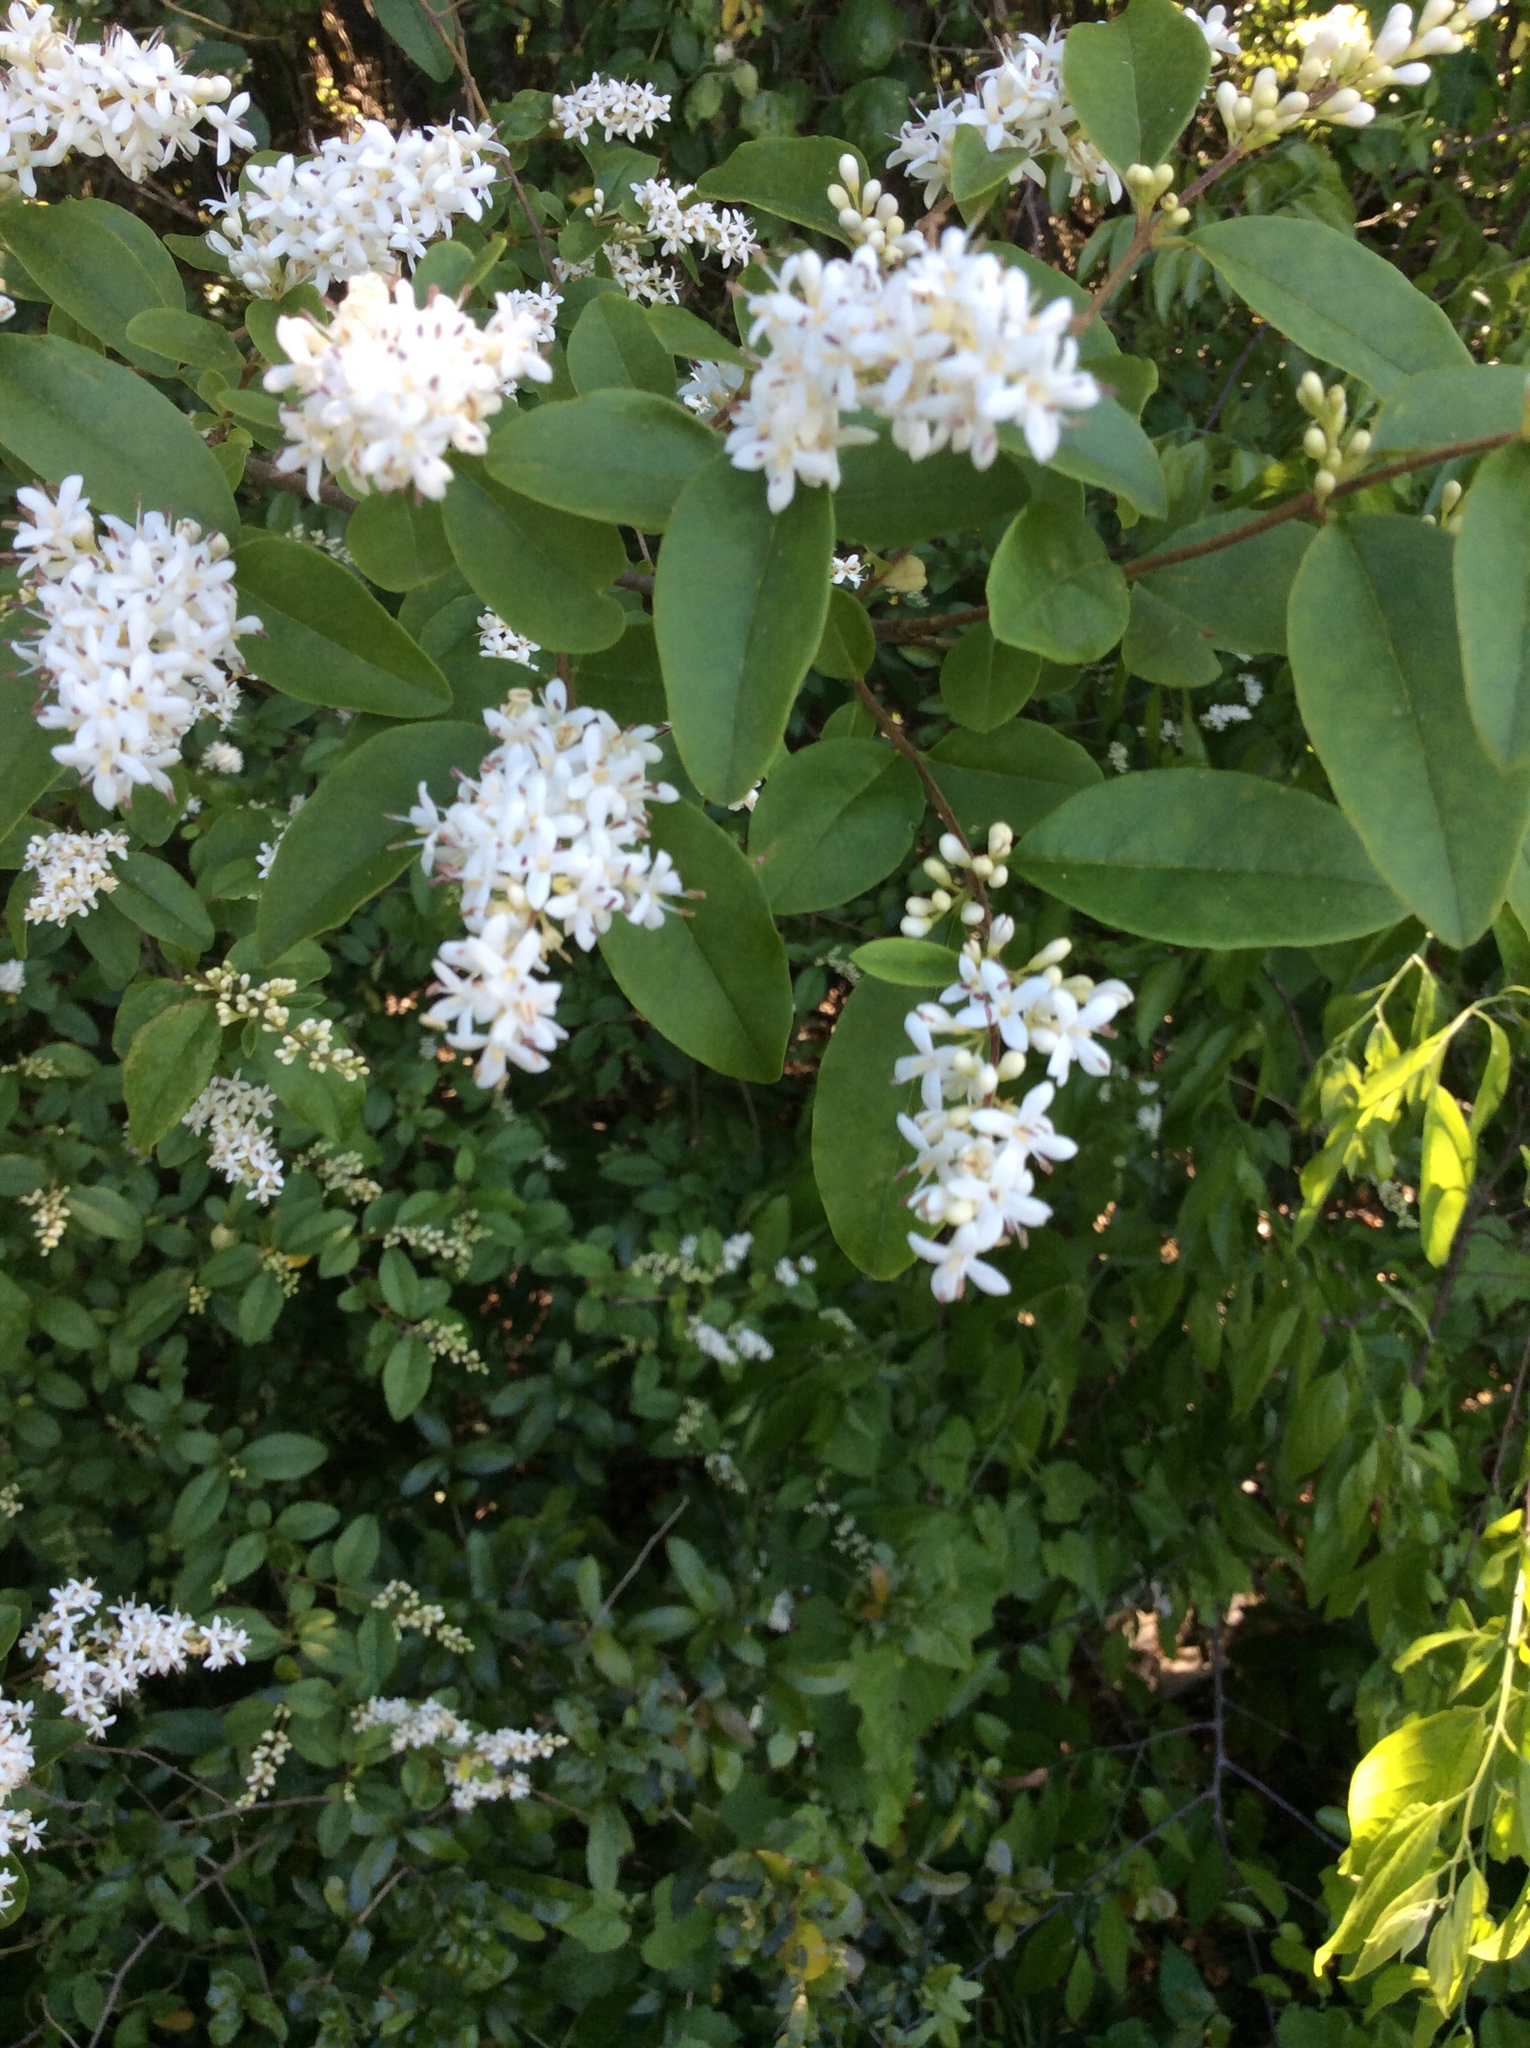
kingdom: Plantae
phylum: Tracheophyta
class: Magnoliopsida
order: Lamiales
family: Oleaceae
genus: Ligustrum
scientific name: Ligustrum sinense
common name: Chinese privet
